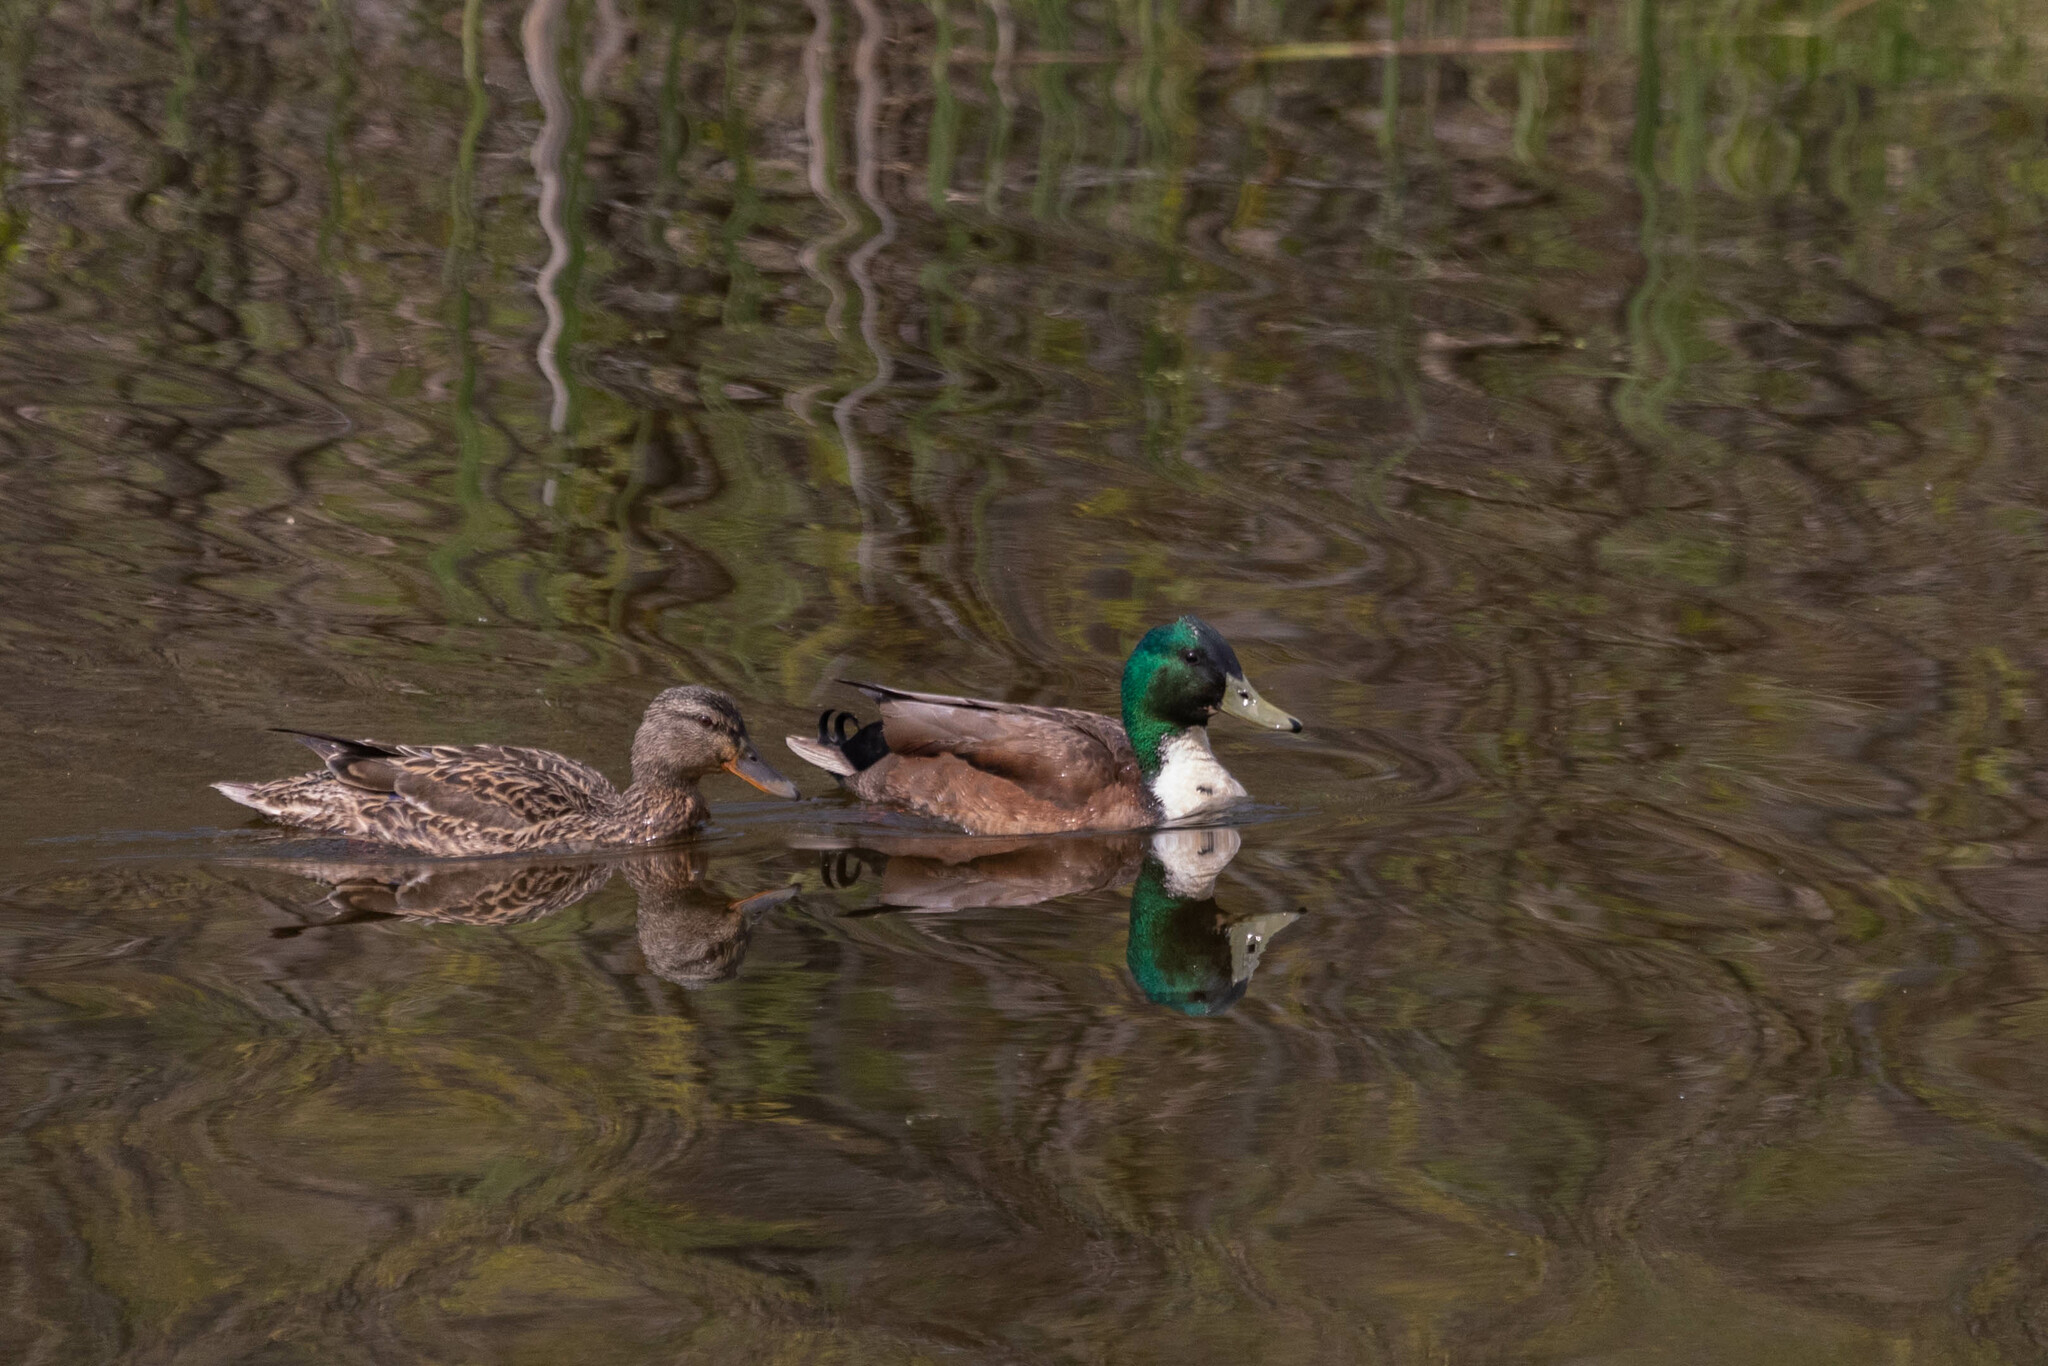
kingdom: Animalia
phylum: Chordata
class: Aves
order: Anseriformes
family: Anatidae
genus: Anas
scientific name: Anas platyrhynchos
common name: Mallard
